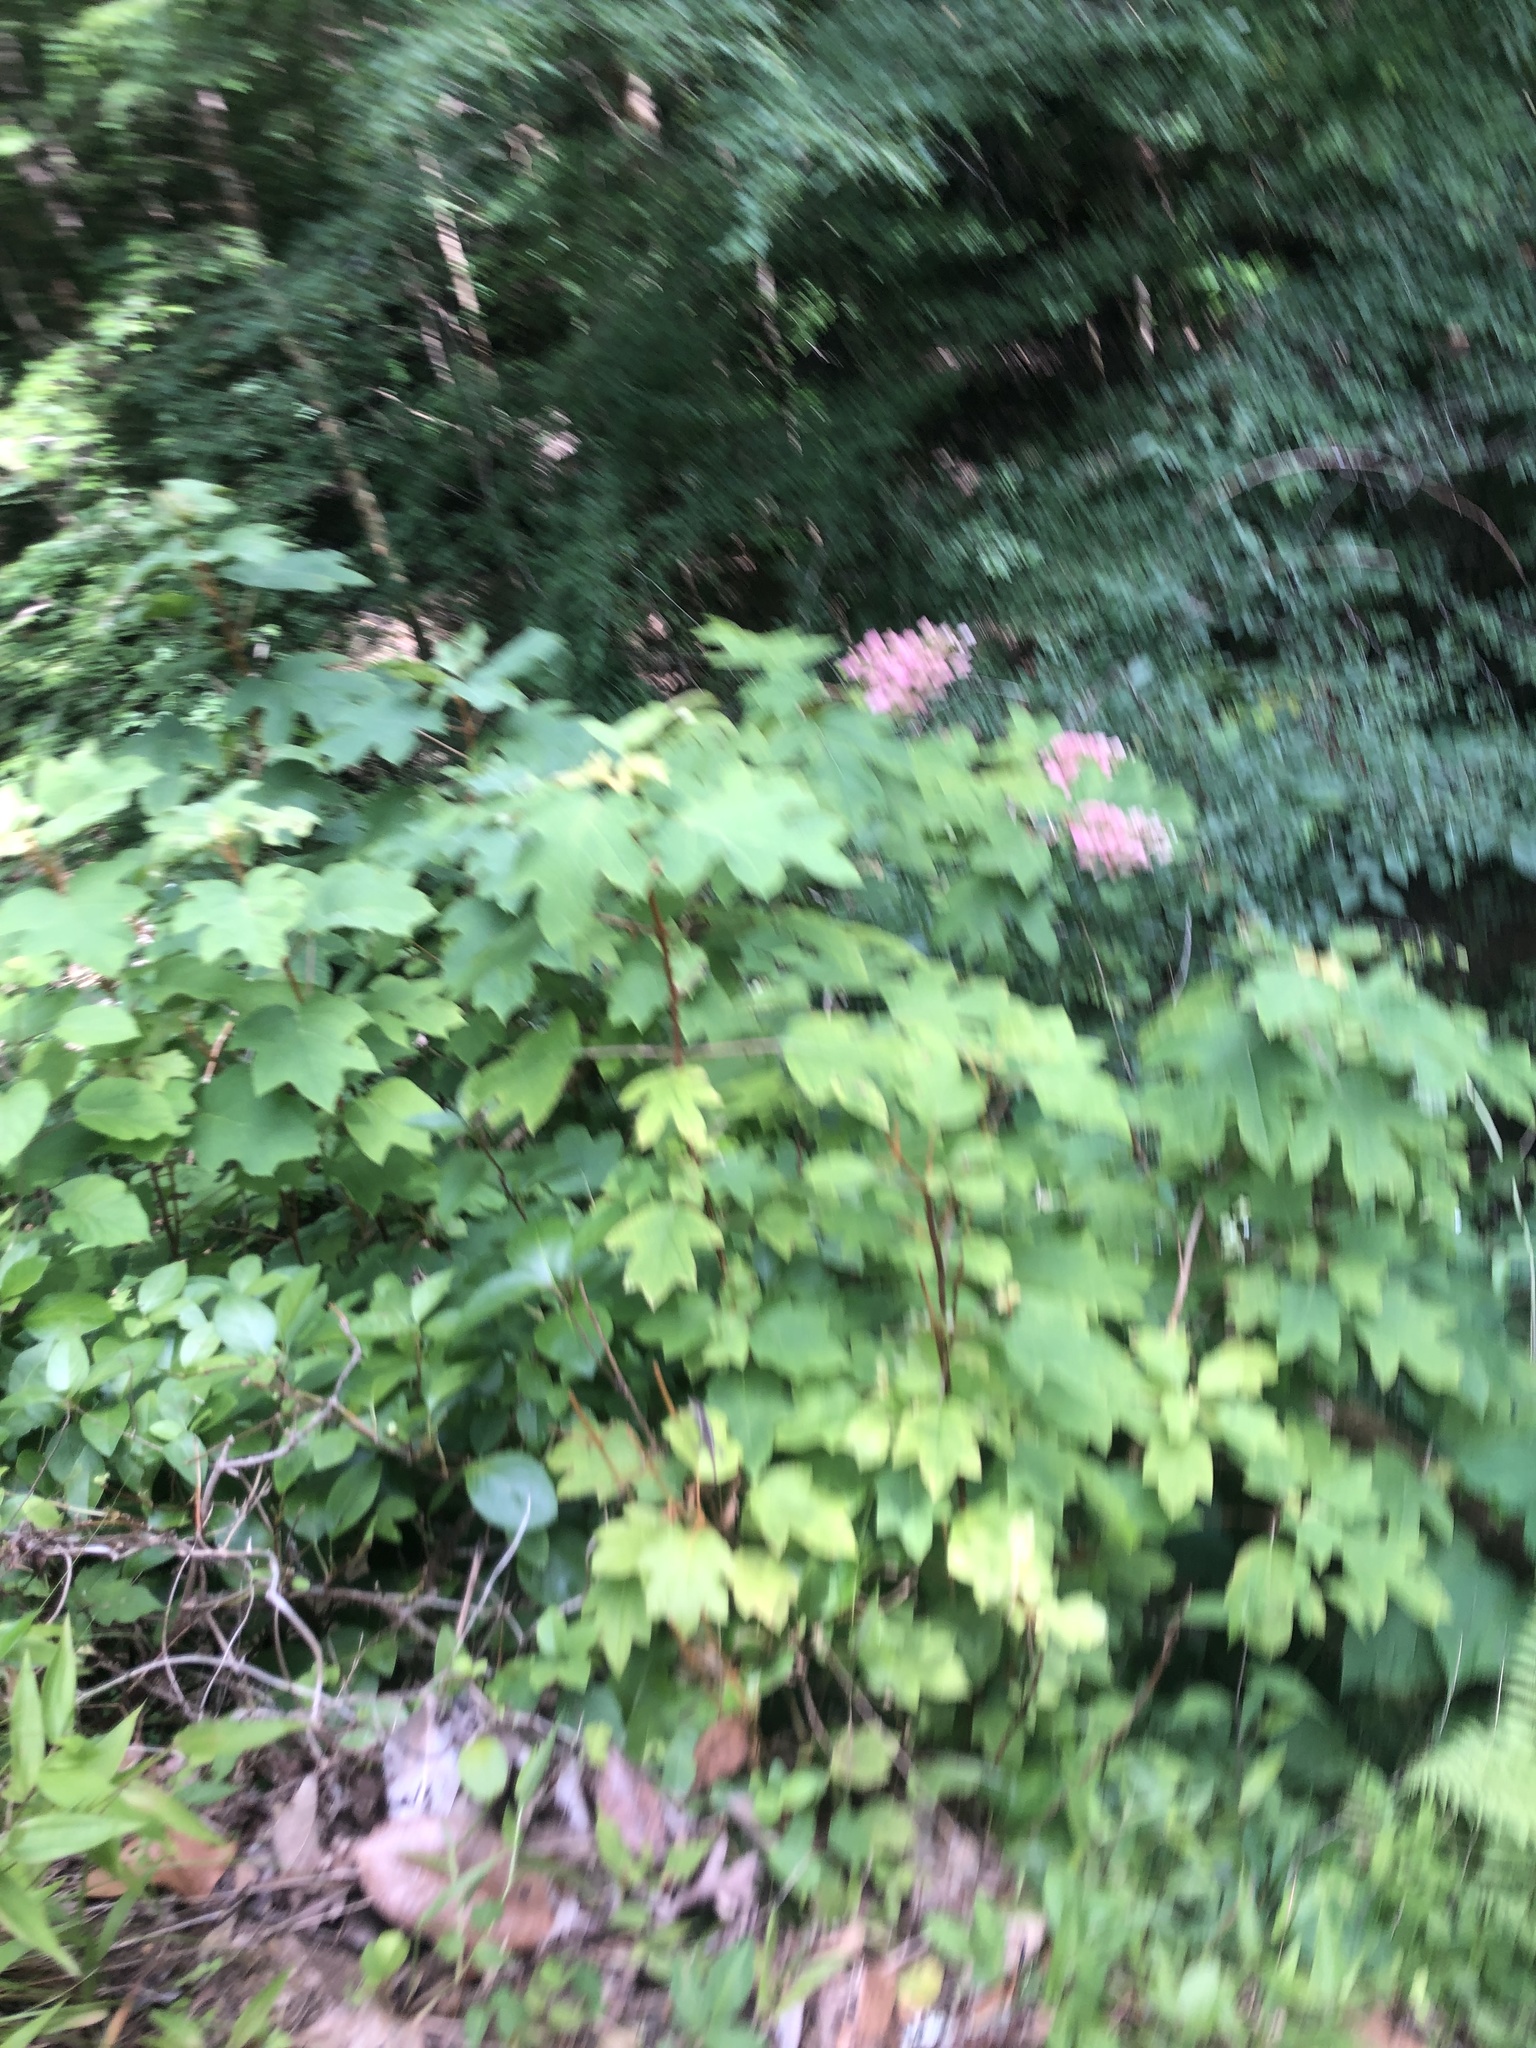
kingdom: Plantae
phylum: Tracheophyta
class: Magnoliopsida
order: Cornales
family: Hydrangeaceae
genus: Hydrangea
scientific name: Hydrangea quercifolia
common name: Oak-leaf hydrangea
